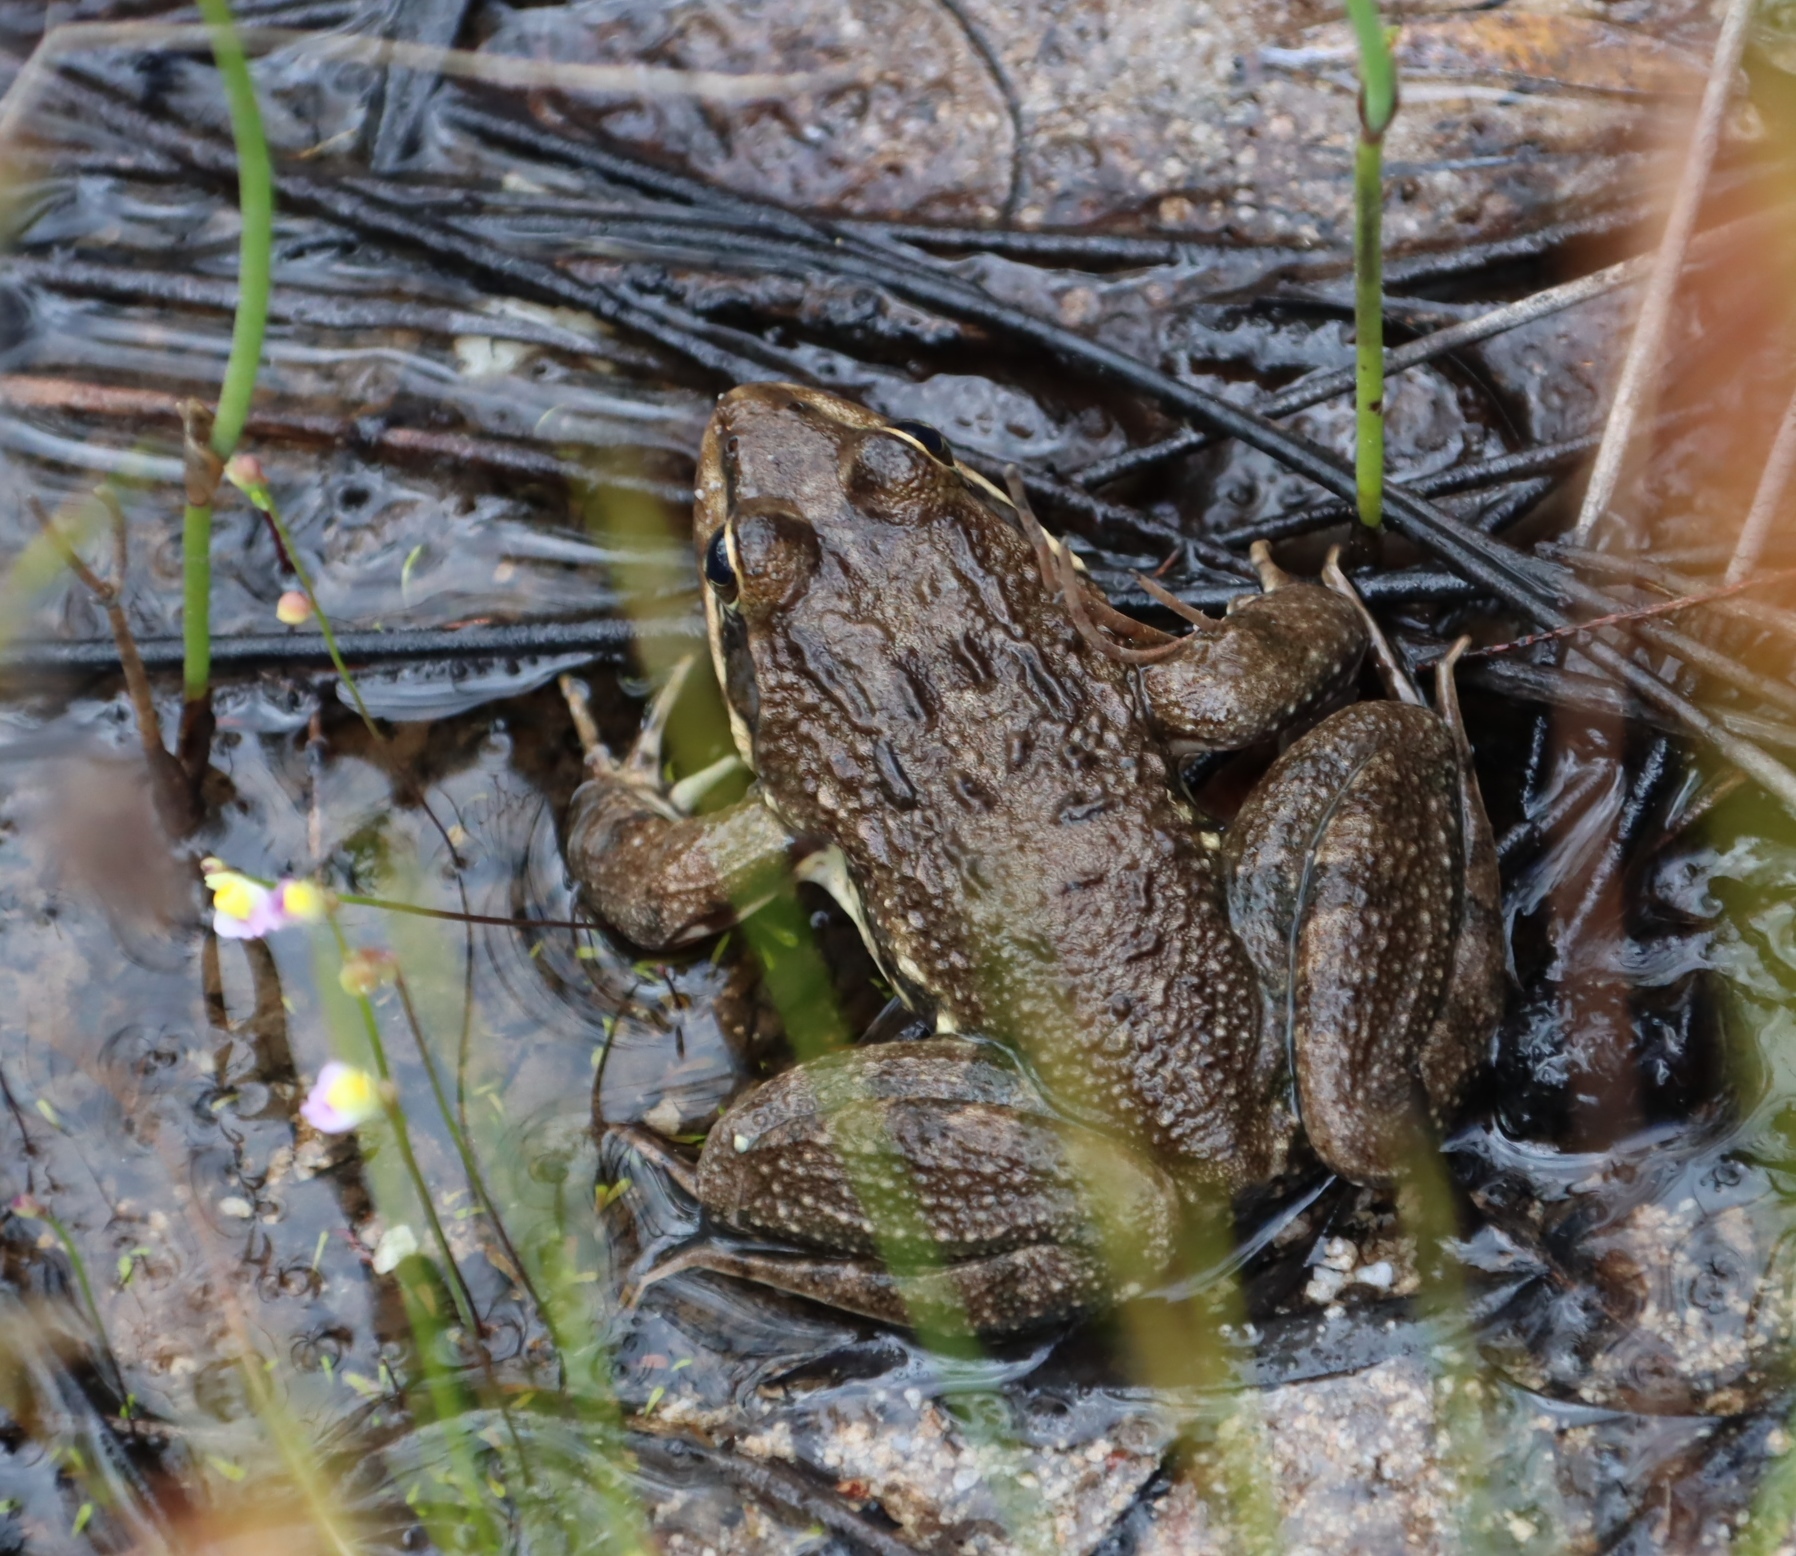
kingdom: Animalia
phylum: Chordata
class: Amphibia
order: Anura
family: Pyxicephalidae
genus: Amietia
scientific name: Amietia fuscigula
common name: Cape rana
